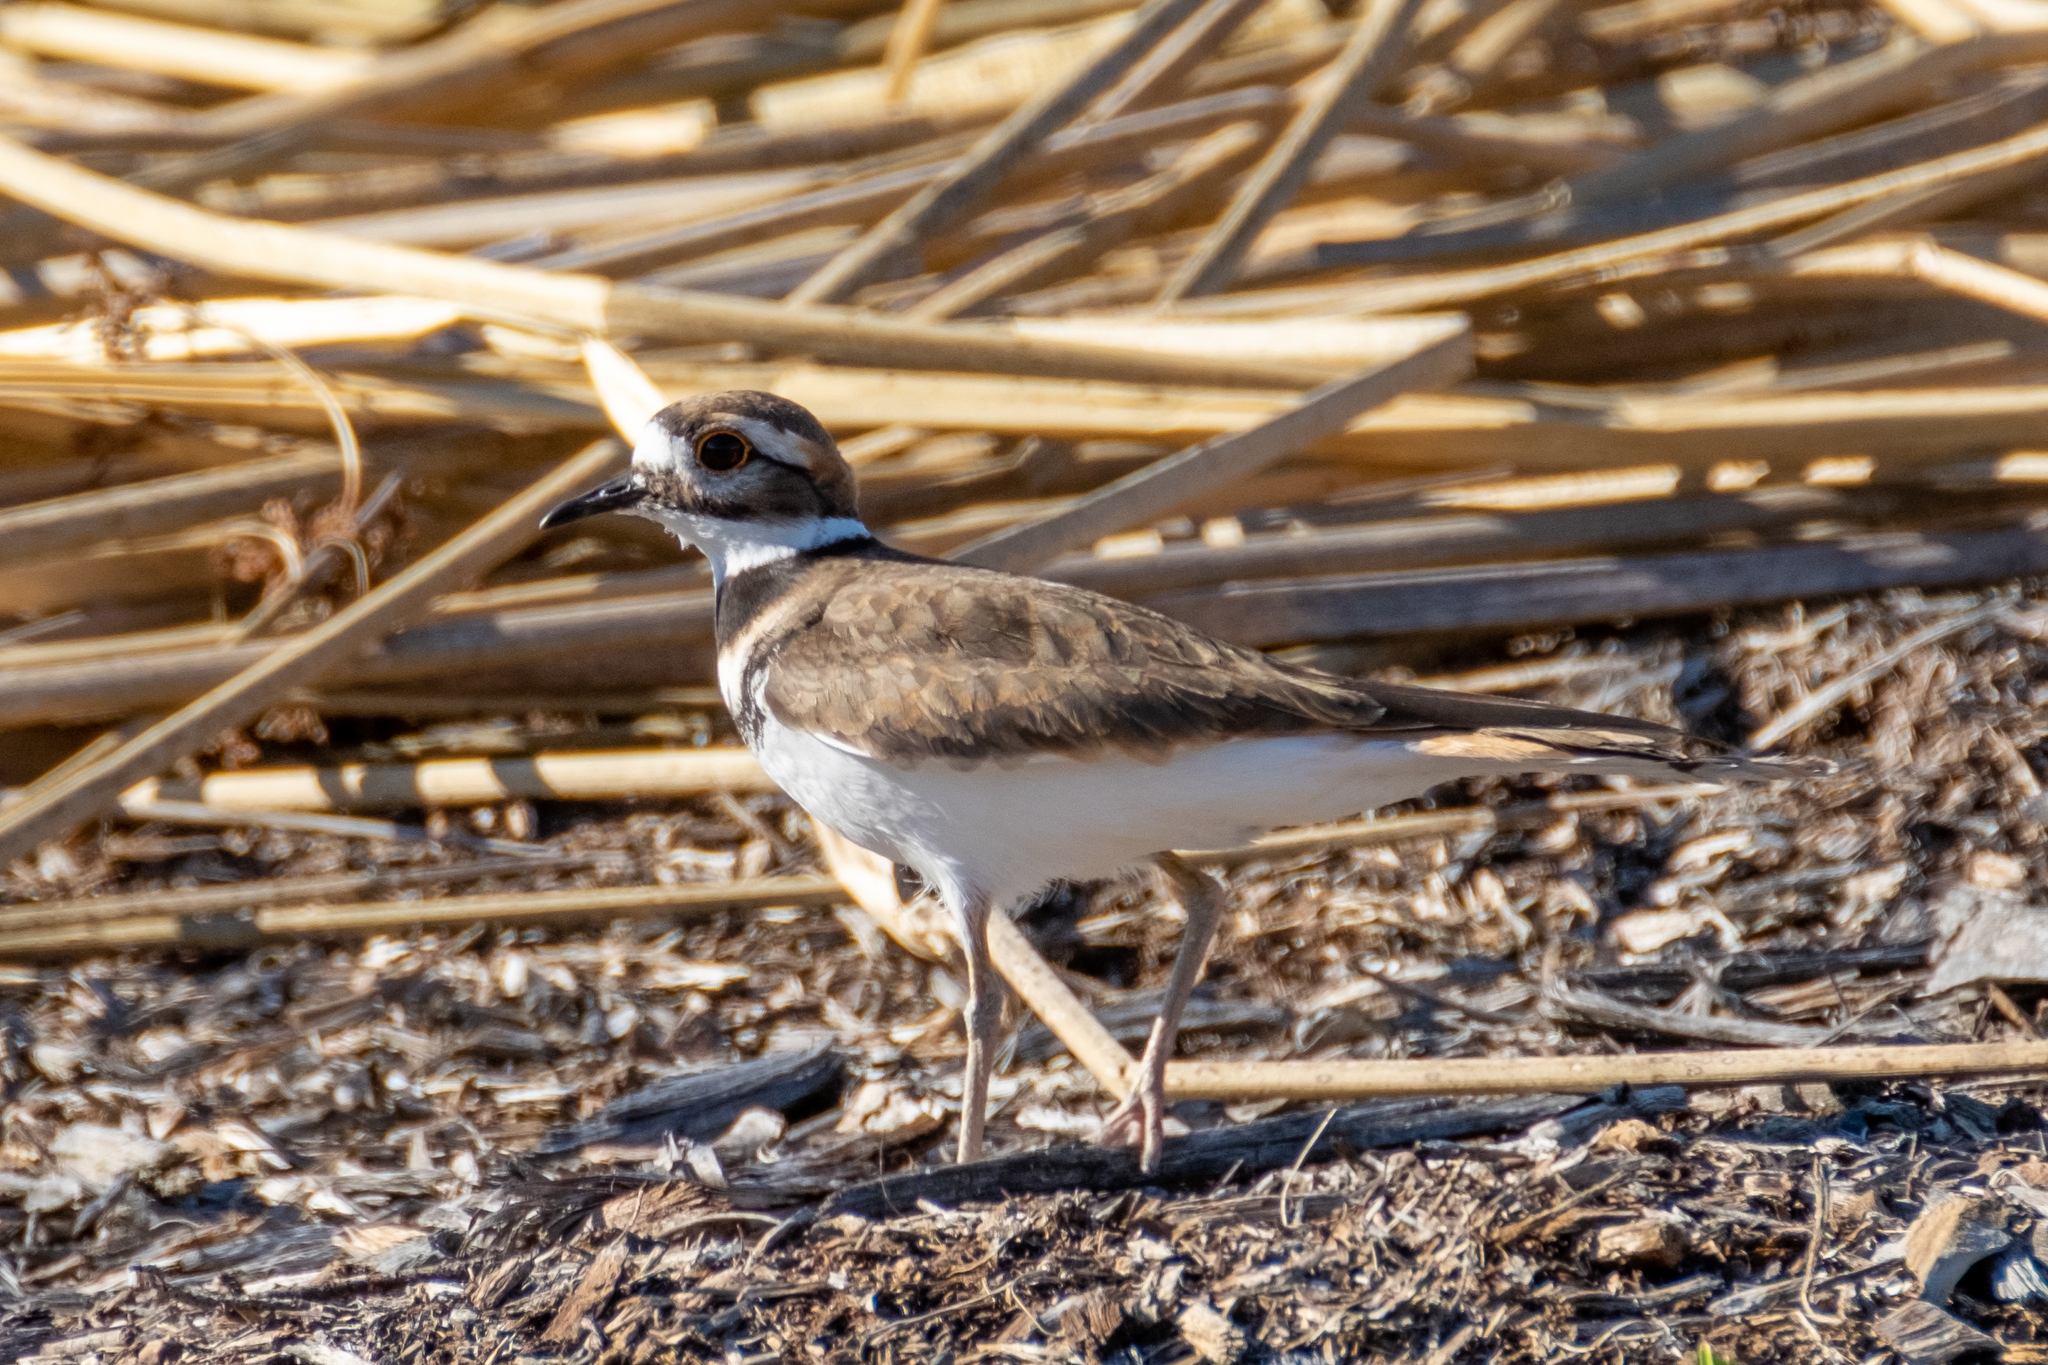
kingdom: Animalia
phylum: Chordata
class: Aves
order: Charadriiformes
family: Charadriidae
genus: Charadrius
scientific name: Charadrius vociferus
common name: Killdeer
